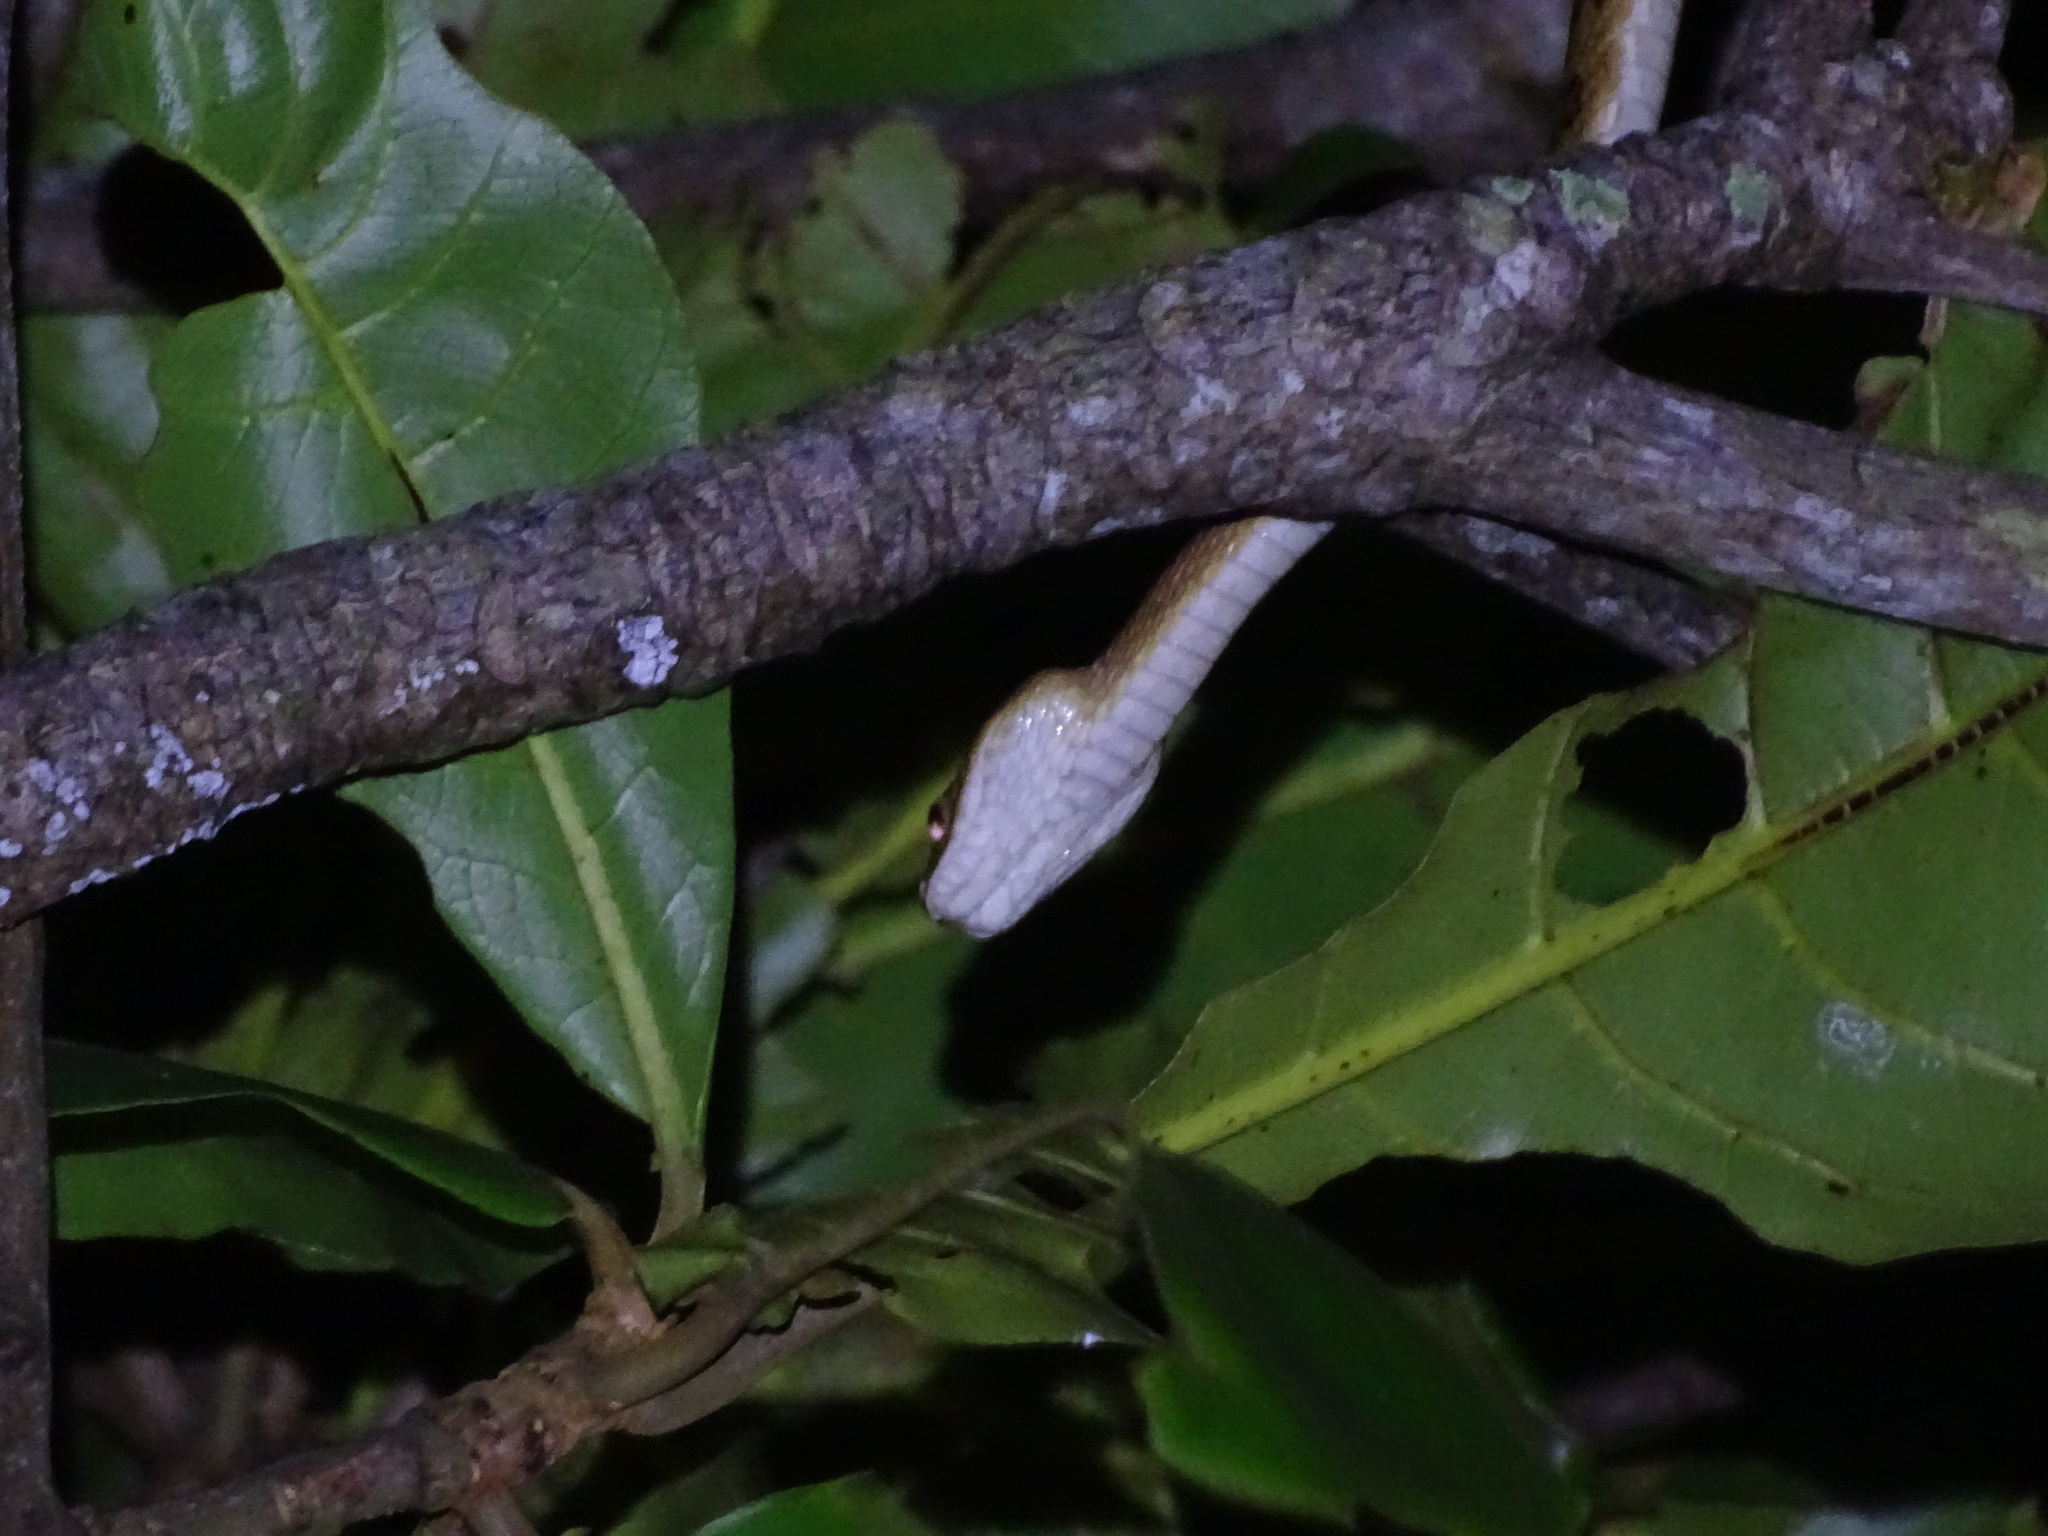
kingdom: Animalia
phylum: Chordata
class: Squamata
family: Colubridae
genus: Boiga
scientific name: Boiga kraepelini
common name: Kelung cat snake
